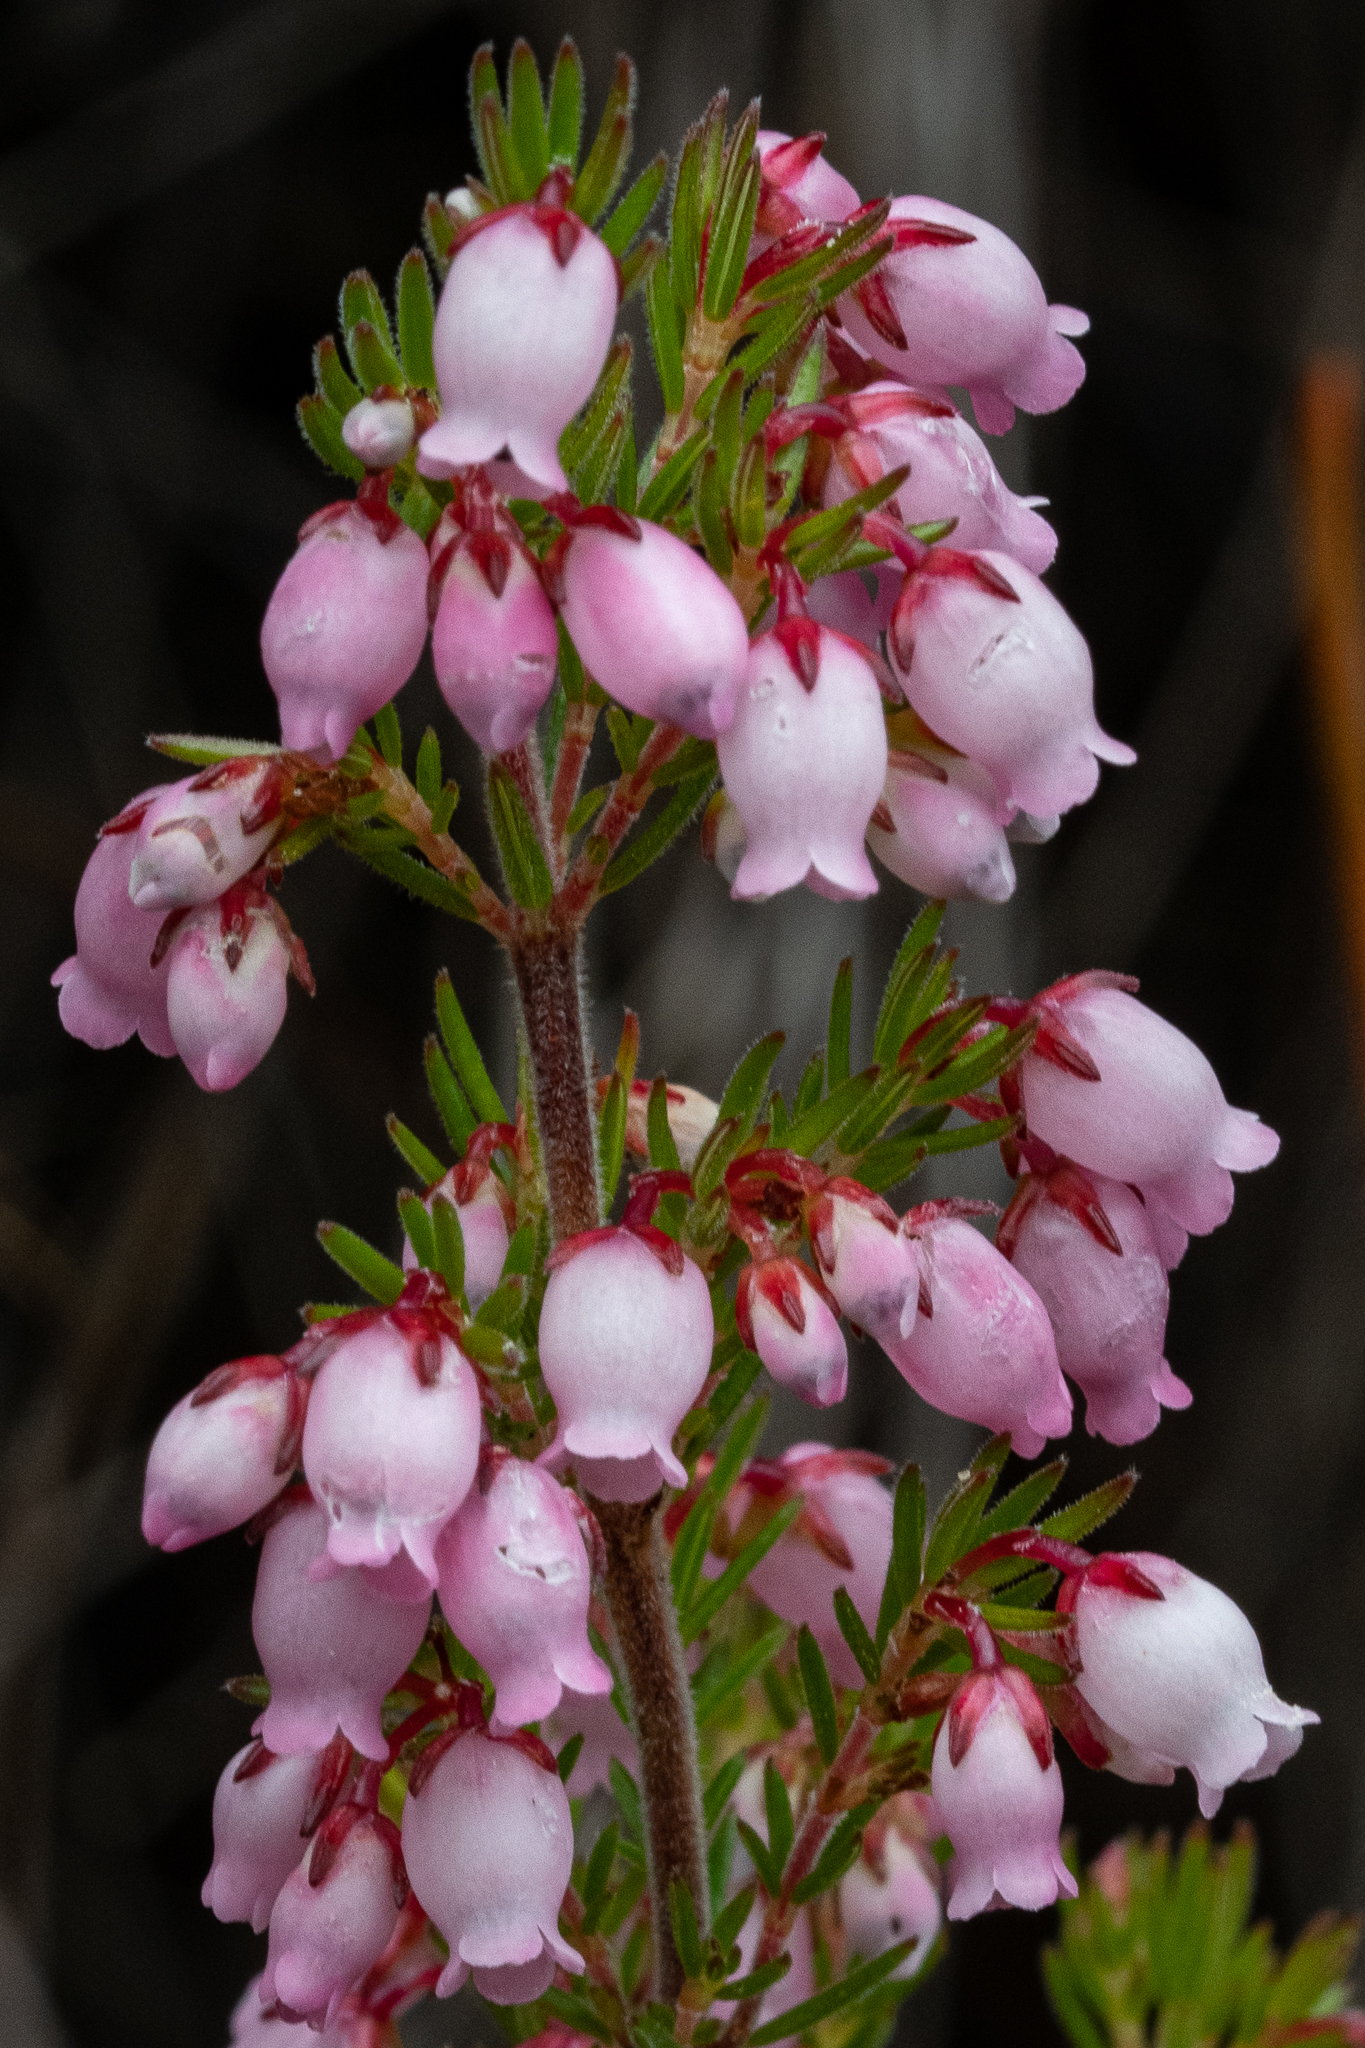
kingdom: Plantae
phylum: Tracheophyta
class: Magnoliopsida
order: Ericales
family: Ericaceae
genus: Erica
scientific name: Erica tenella
